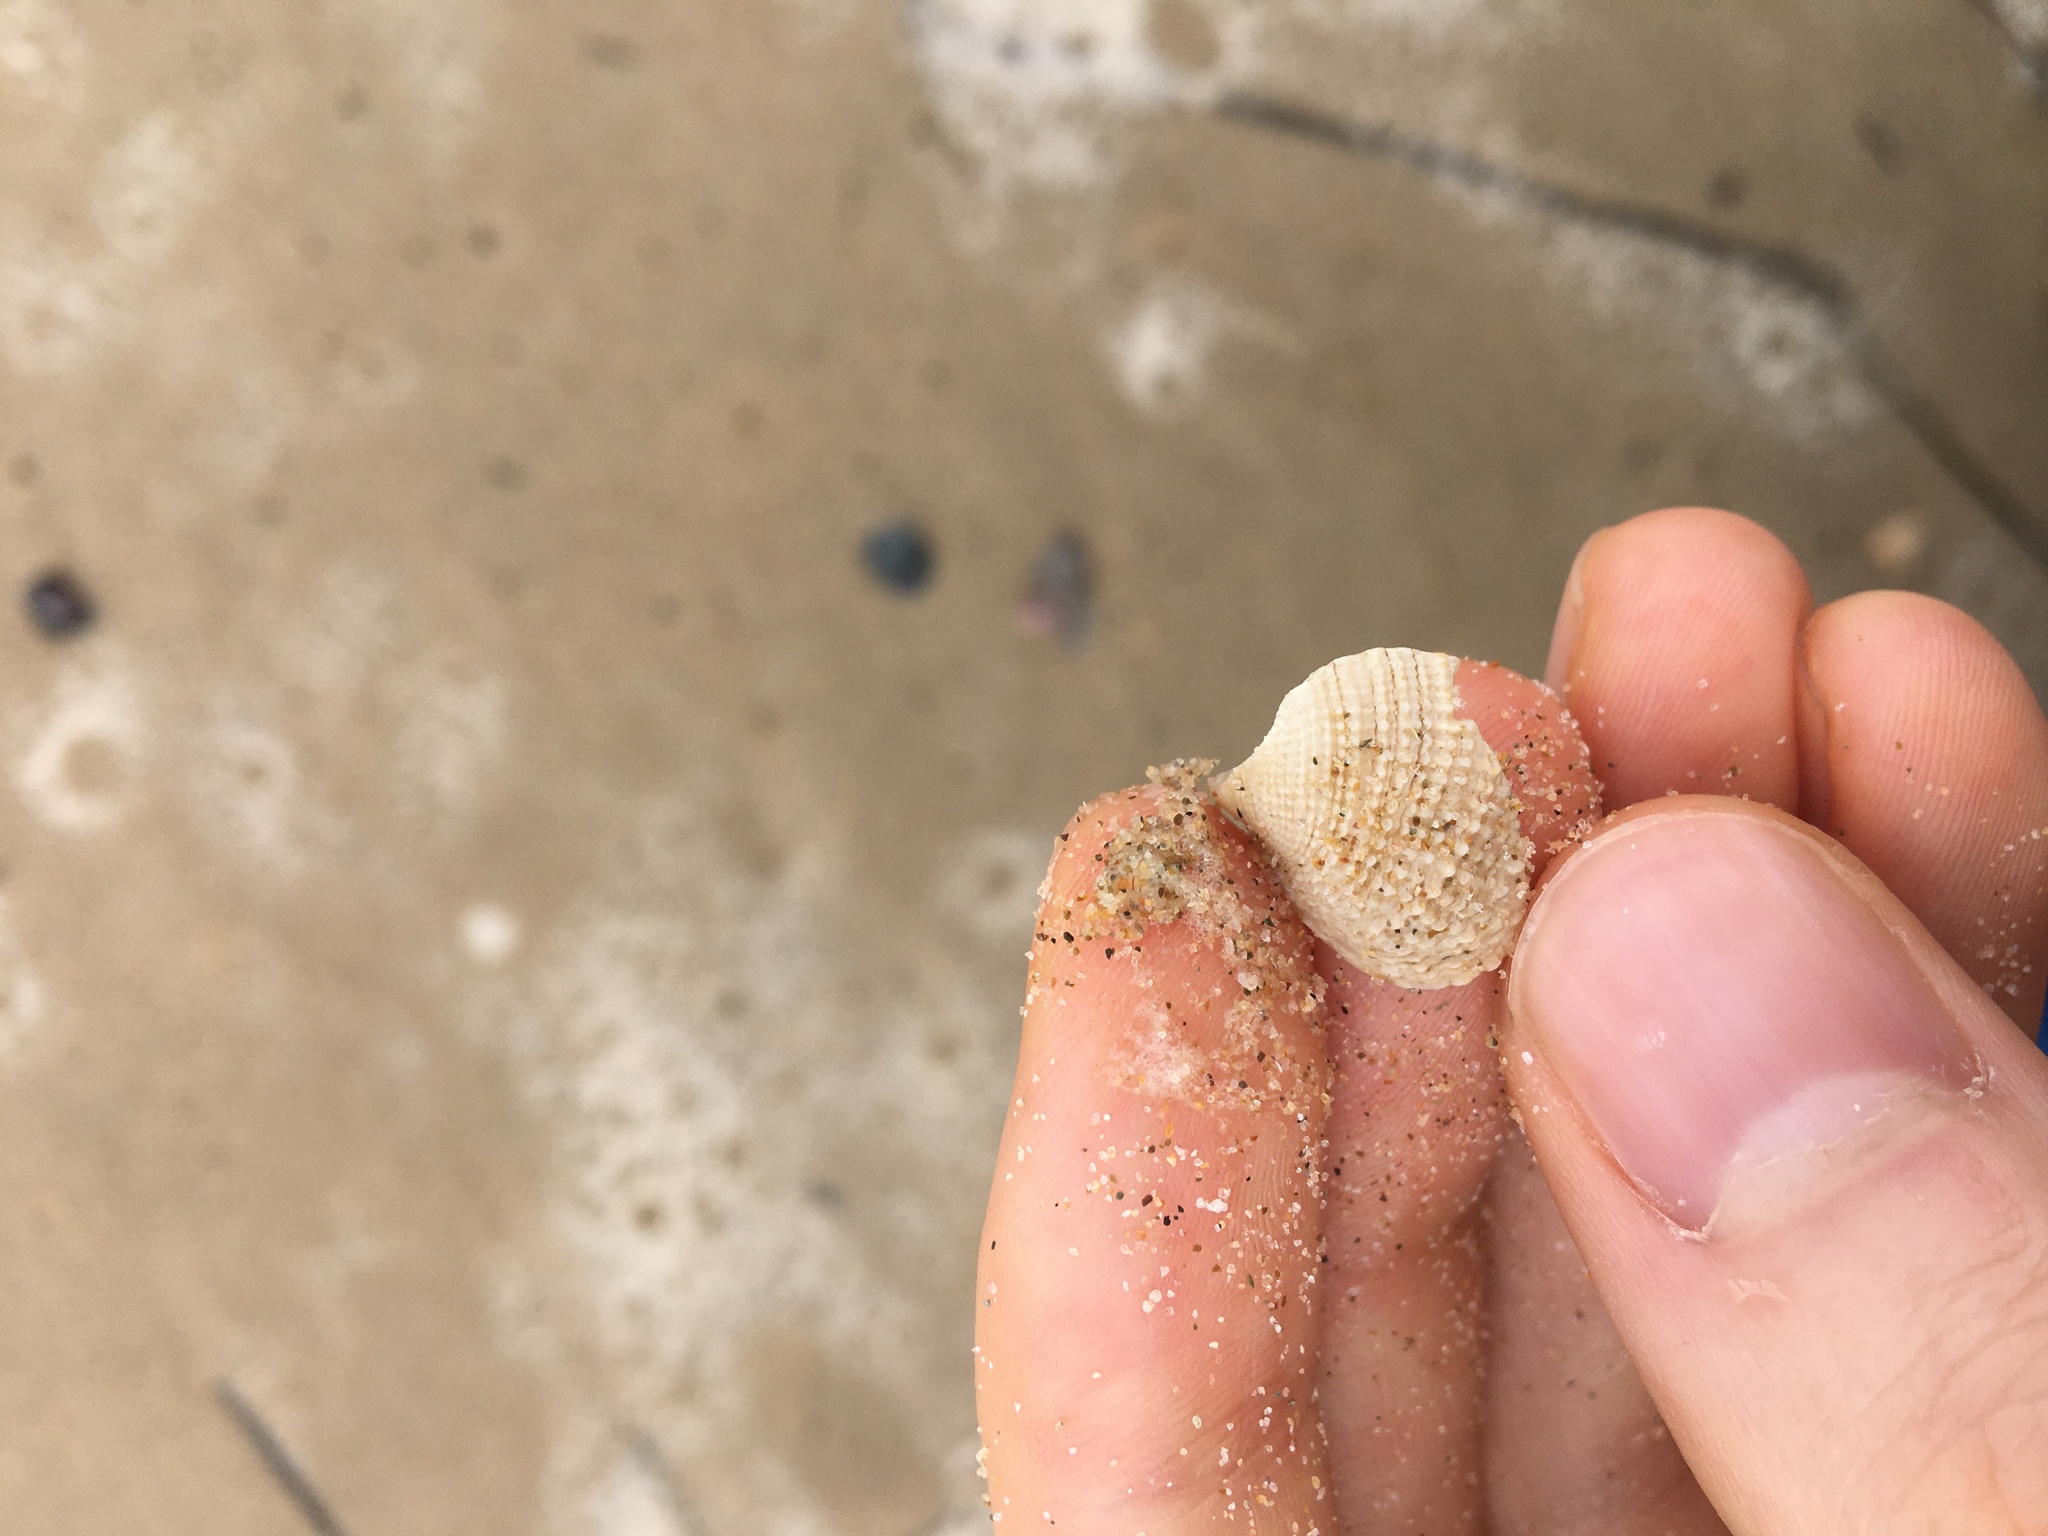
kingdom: Animalia
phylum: Mollusca
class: Bivalvia
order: Venerida
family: Veneridae
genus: Irus
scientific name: Irus crenatus
